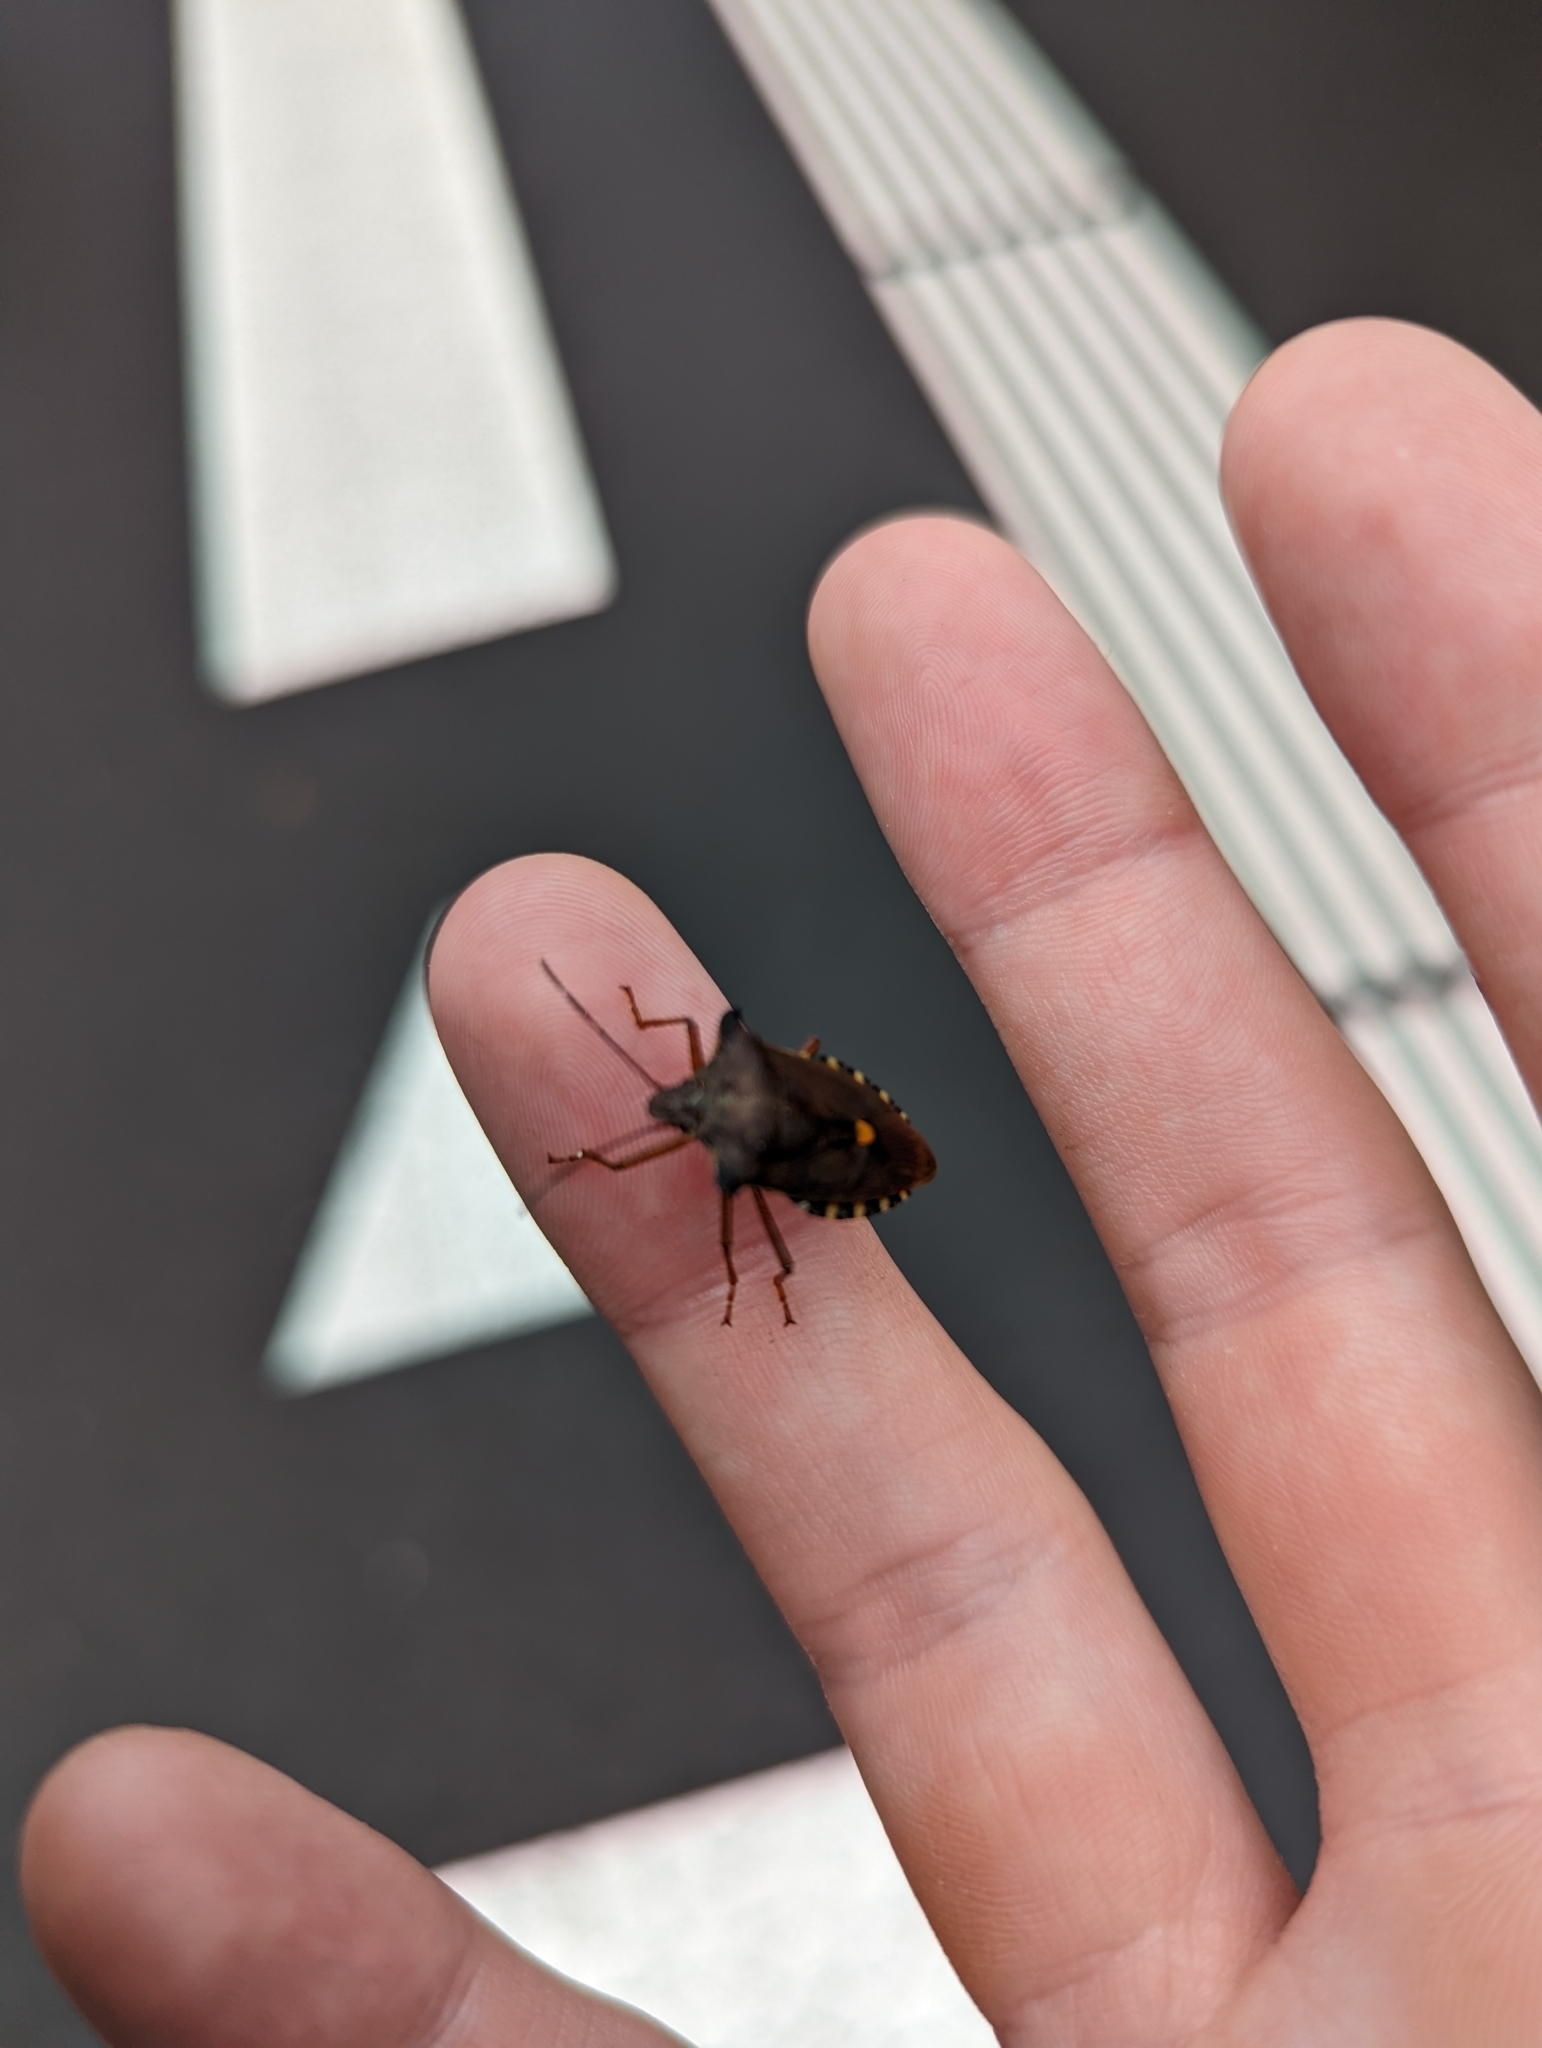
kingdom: Animalia
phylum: Arthropoda
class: Insecta
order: Hemiptera
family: Pentatomidae
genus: Pentatoma
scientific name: Pentatoma rufipes
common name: Forest bug
